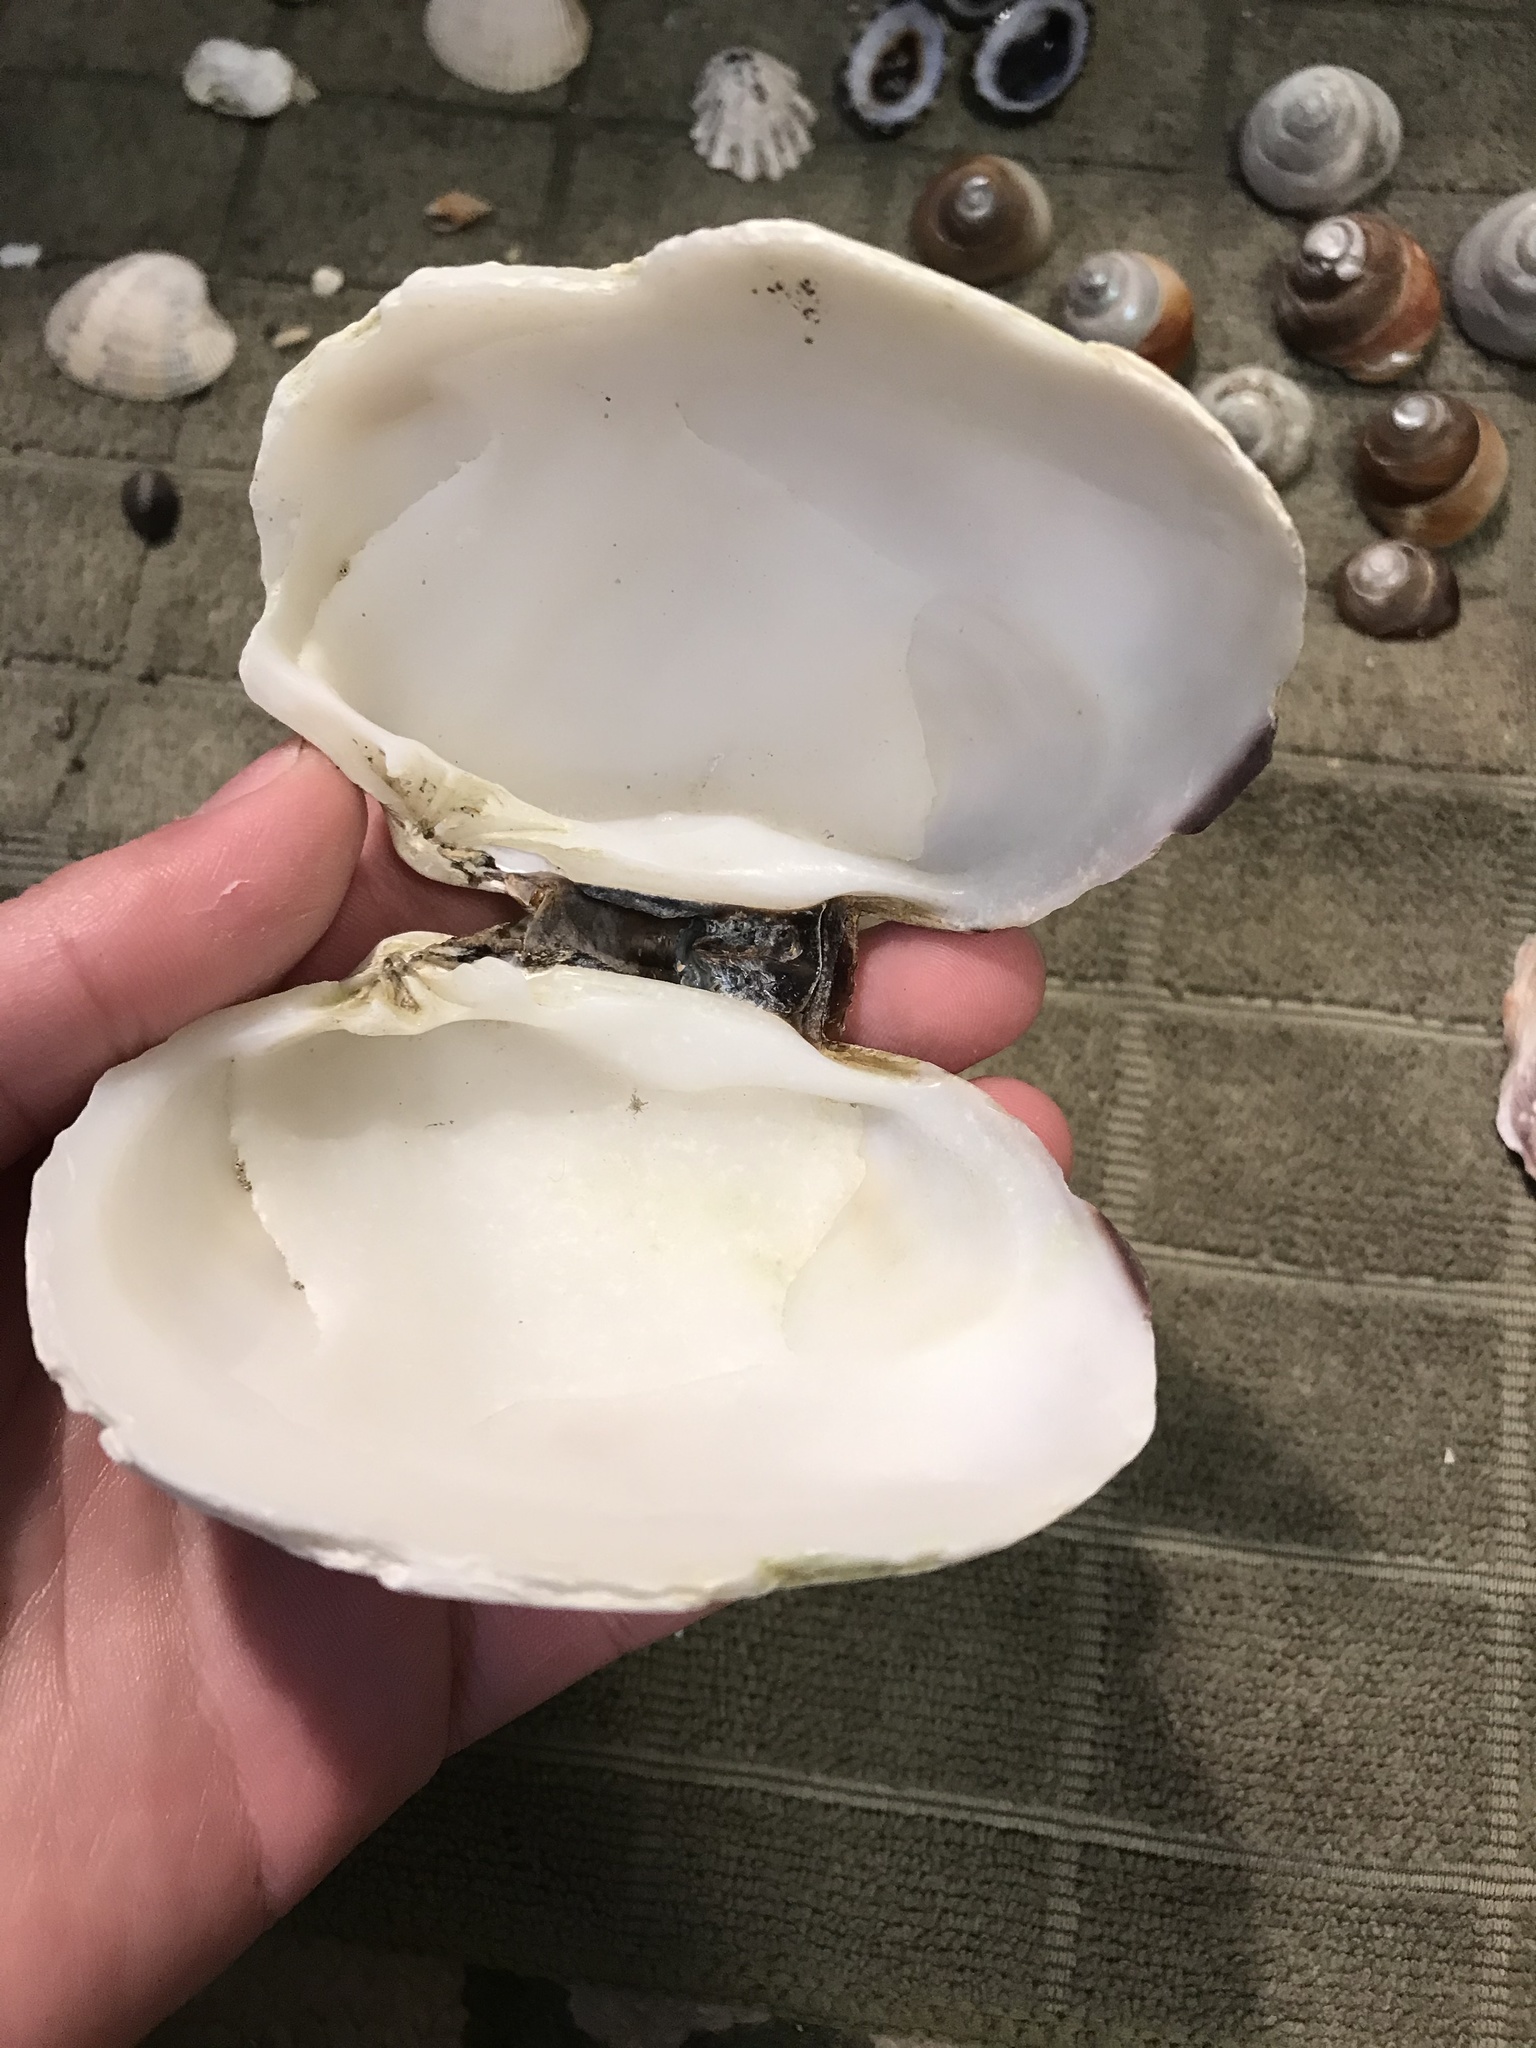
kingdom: Animalia
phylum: Mollusca
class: Bivalvia
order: Venerida
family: Veneridae
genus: Saxidomus
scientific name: Saxidomus nuttalli
